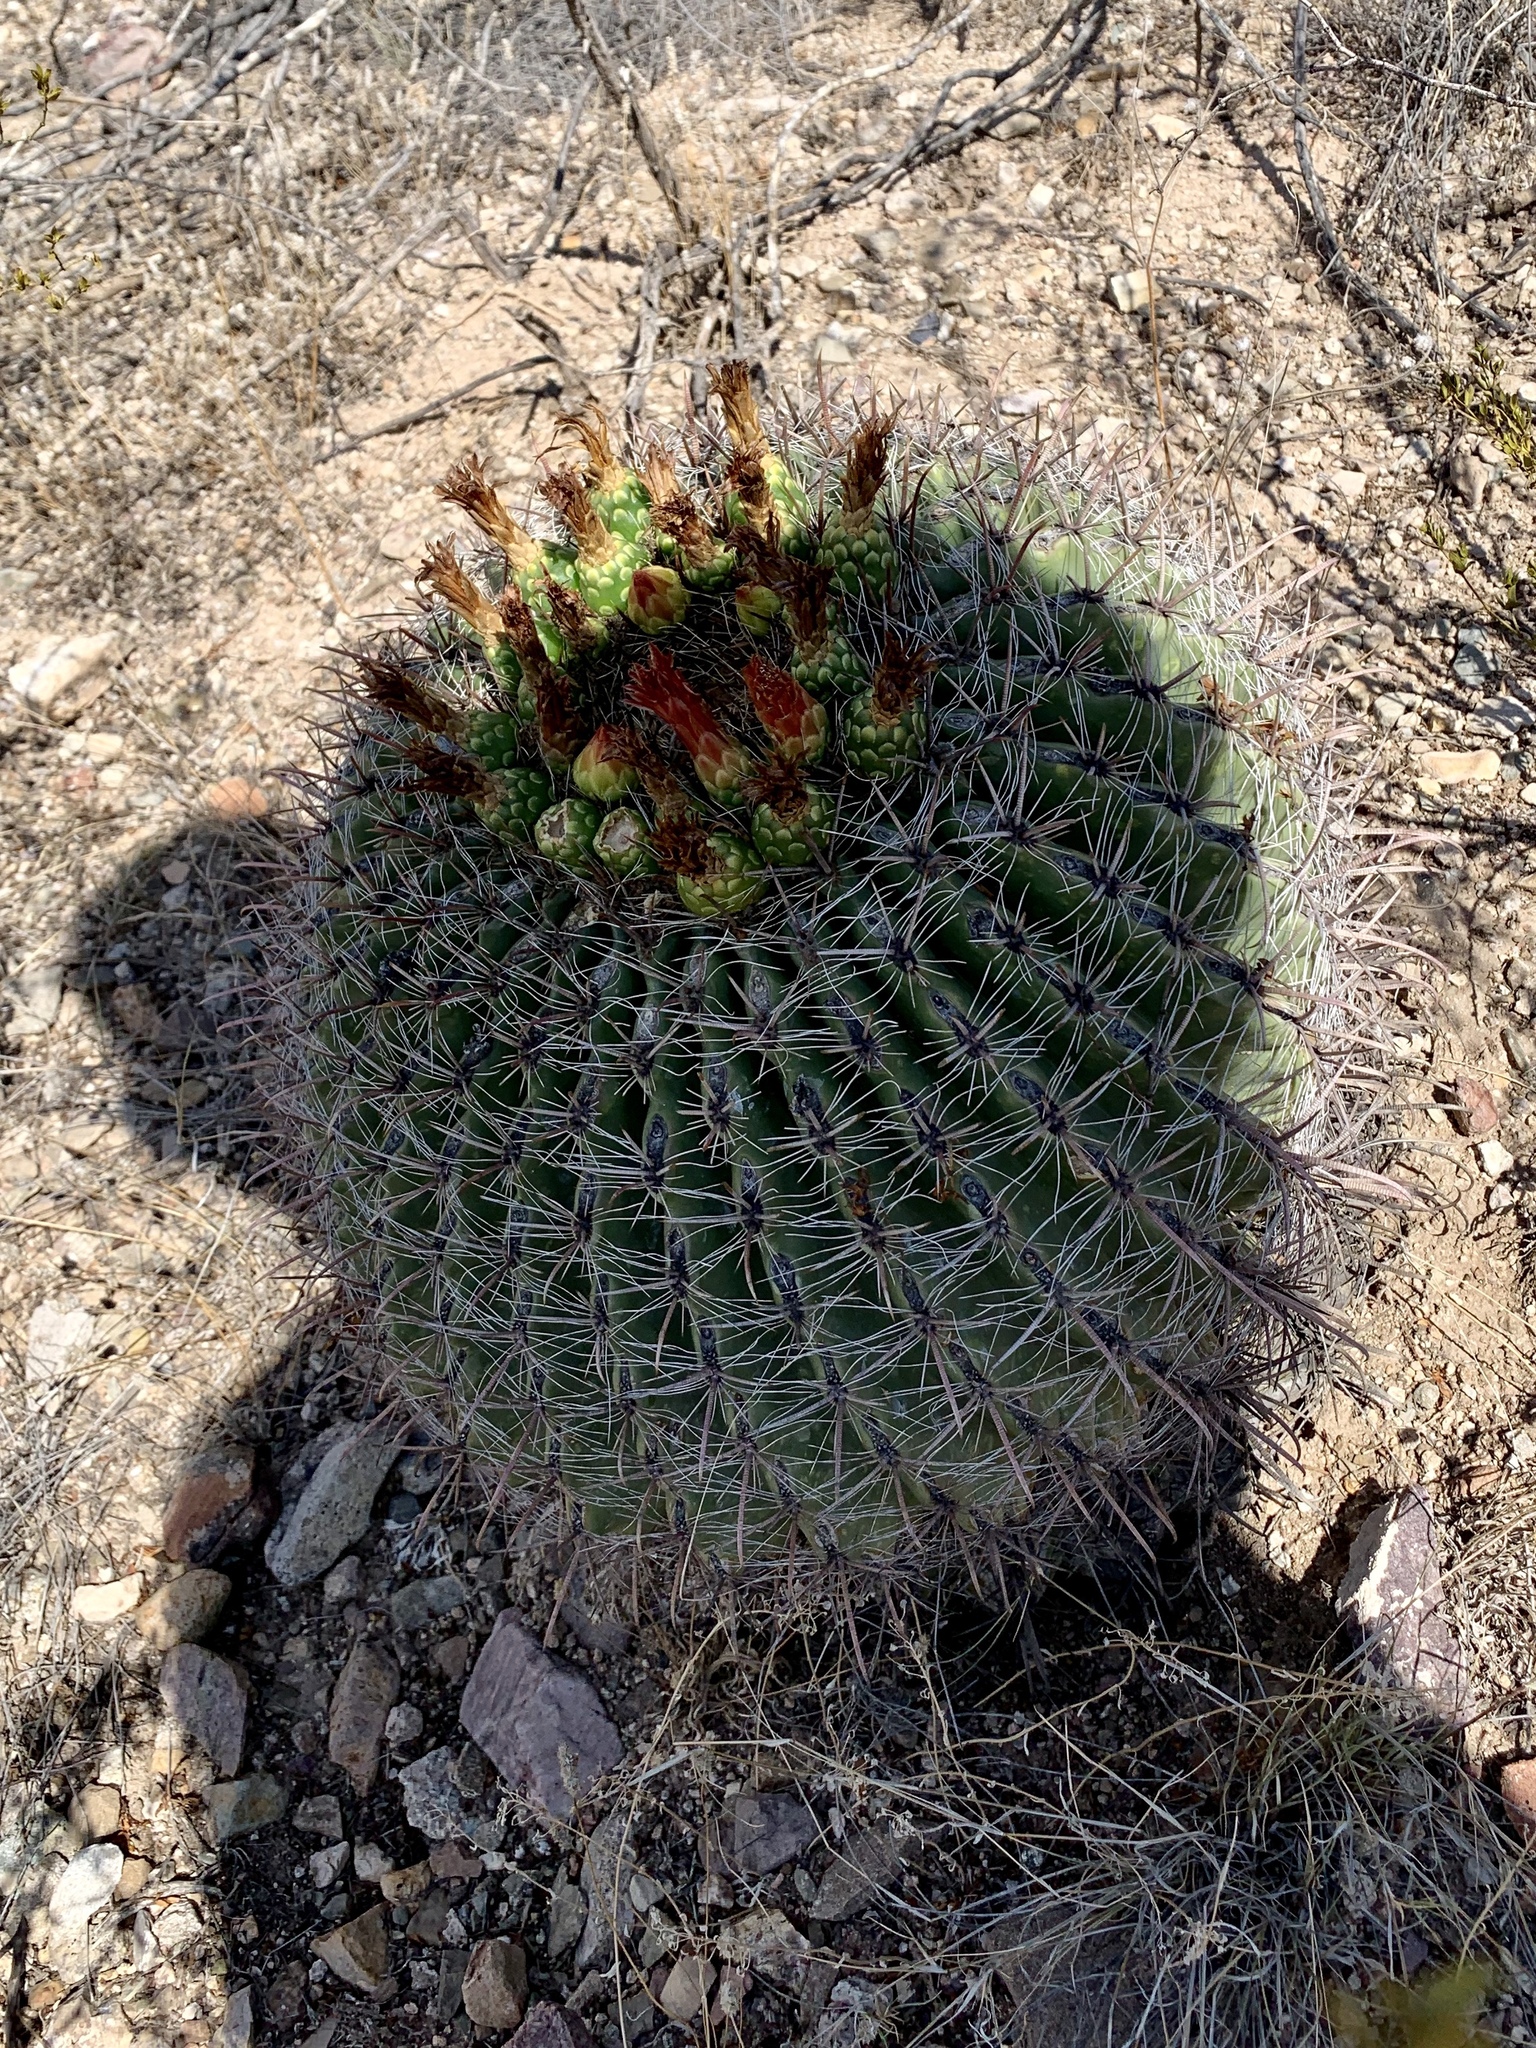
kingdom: Plantae
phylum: Tracheophyta
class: Magnoliopsida
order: Caryophyllales
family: Cactaceae
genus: Ferocactus
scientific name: Ferocactus wislizeni
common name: Candy barrel cactus
